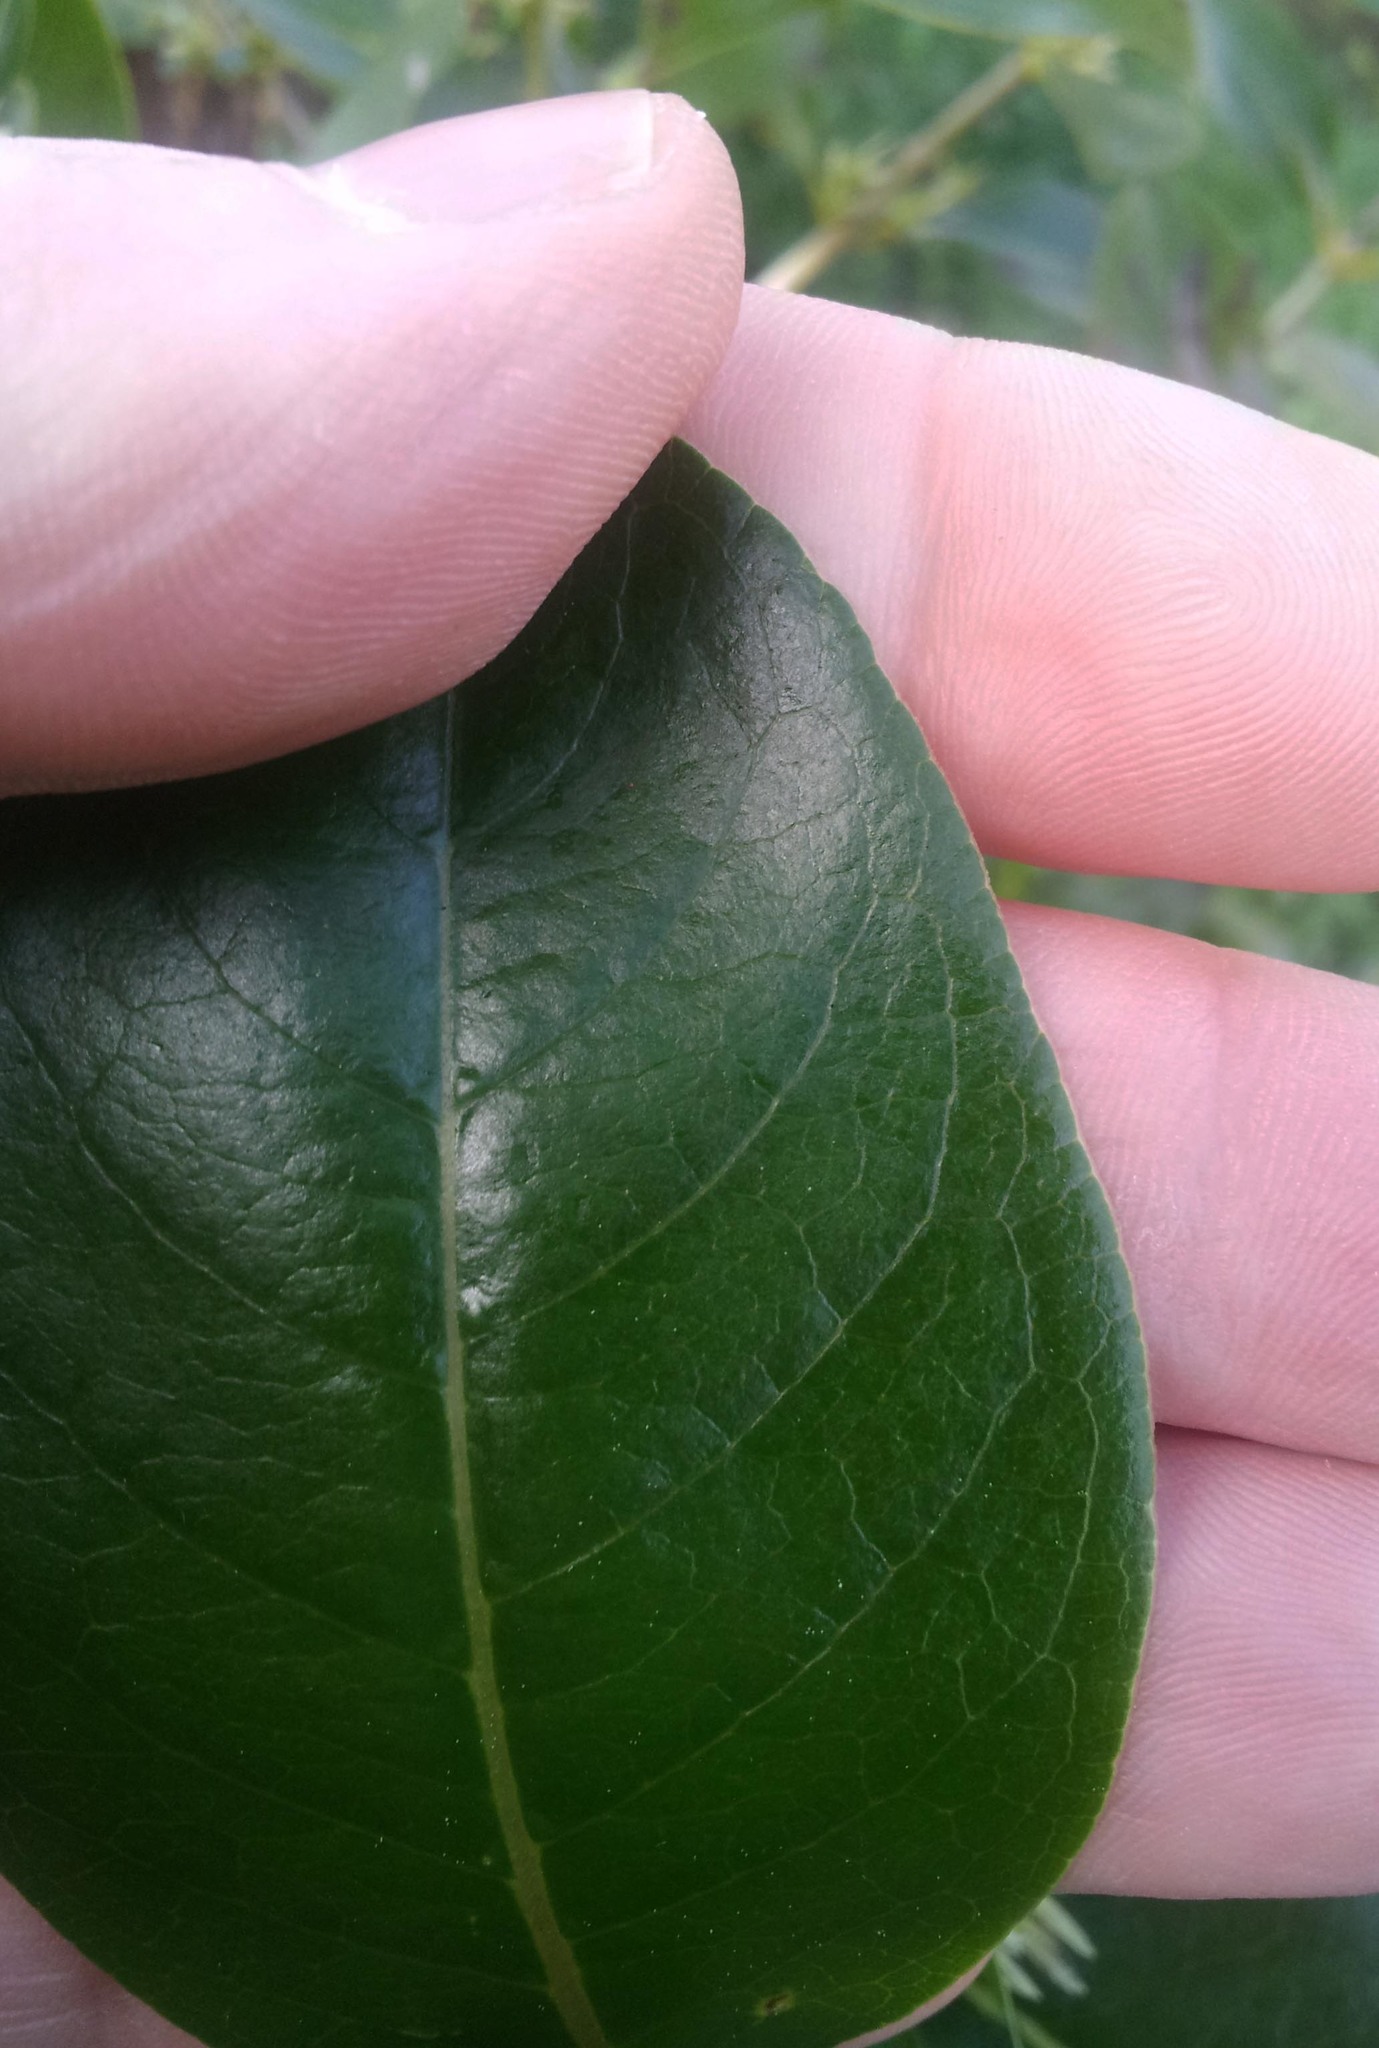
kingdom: Plantae
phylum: Tracheophyta
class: Magnoliopsida
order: Gentianales
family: Rubiaceae
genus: Coprosma
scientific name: Coprosma robusta
